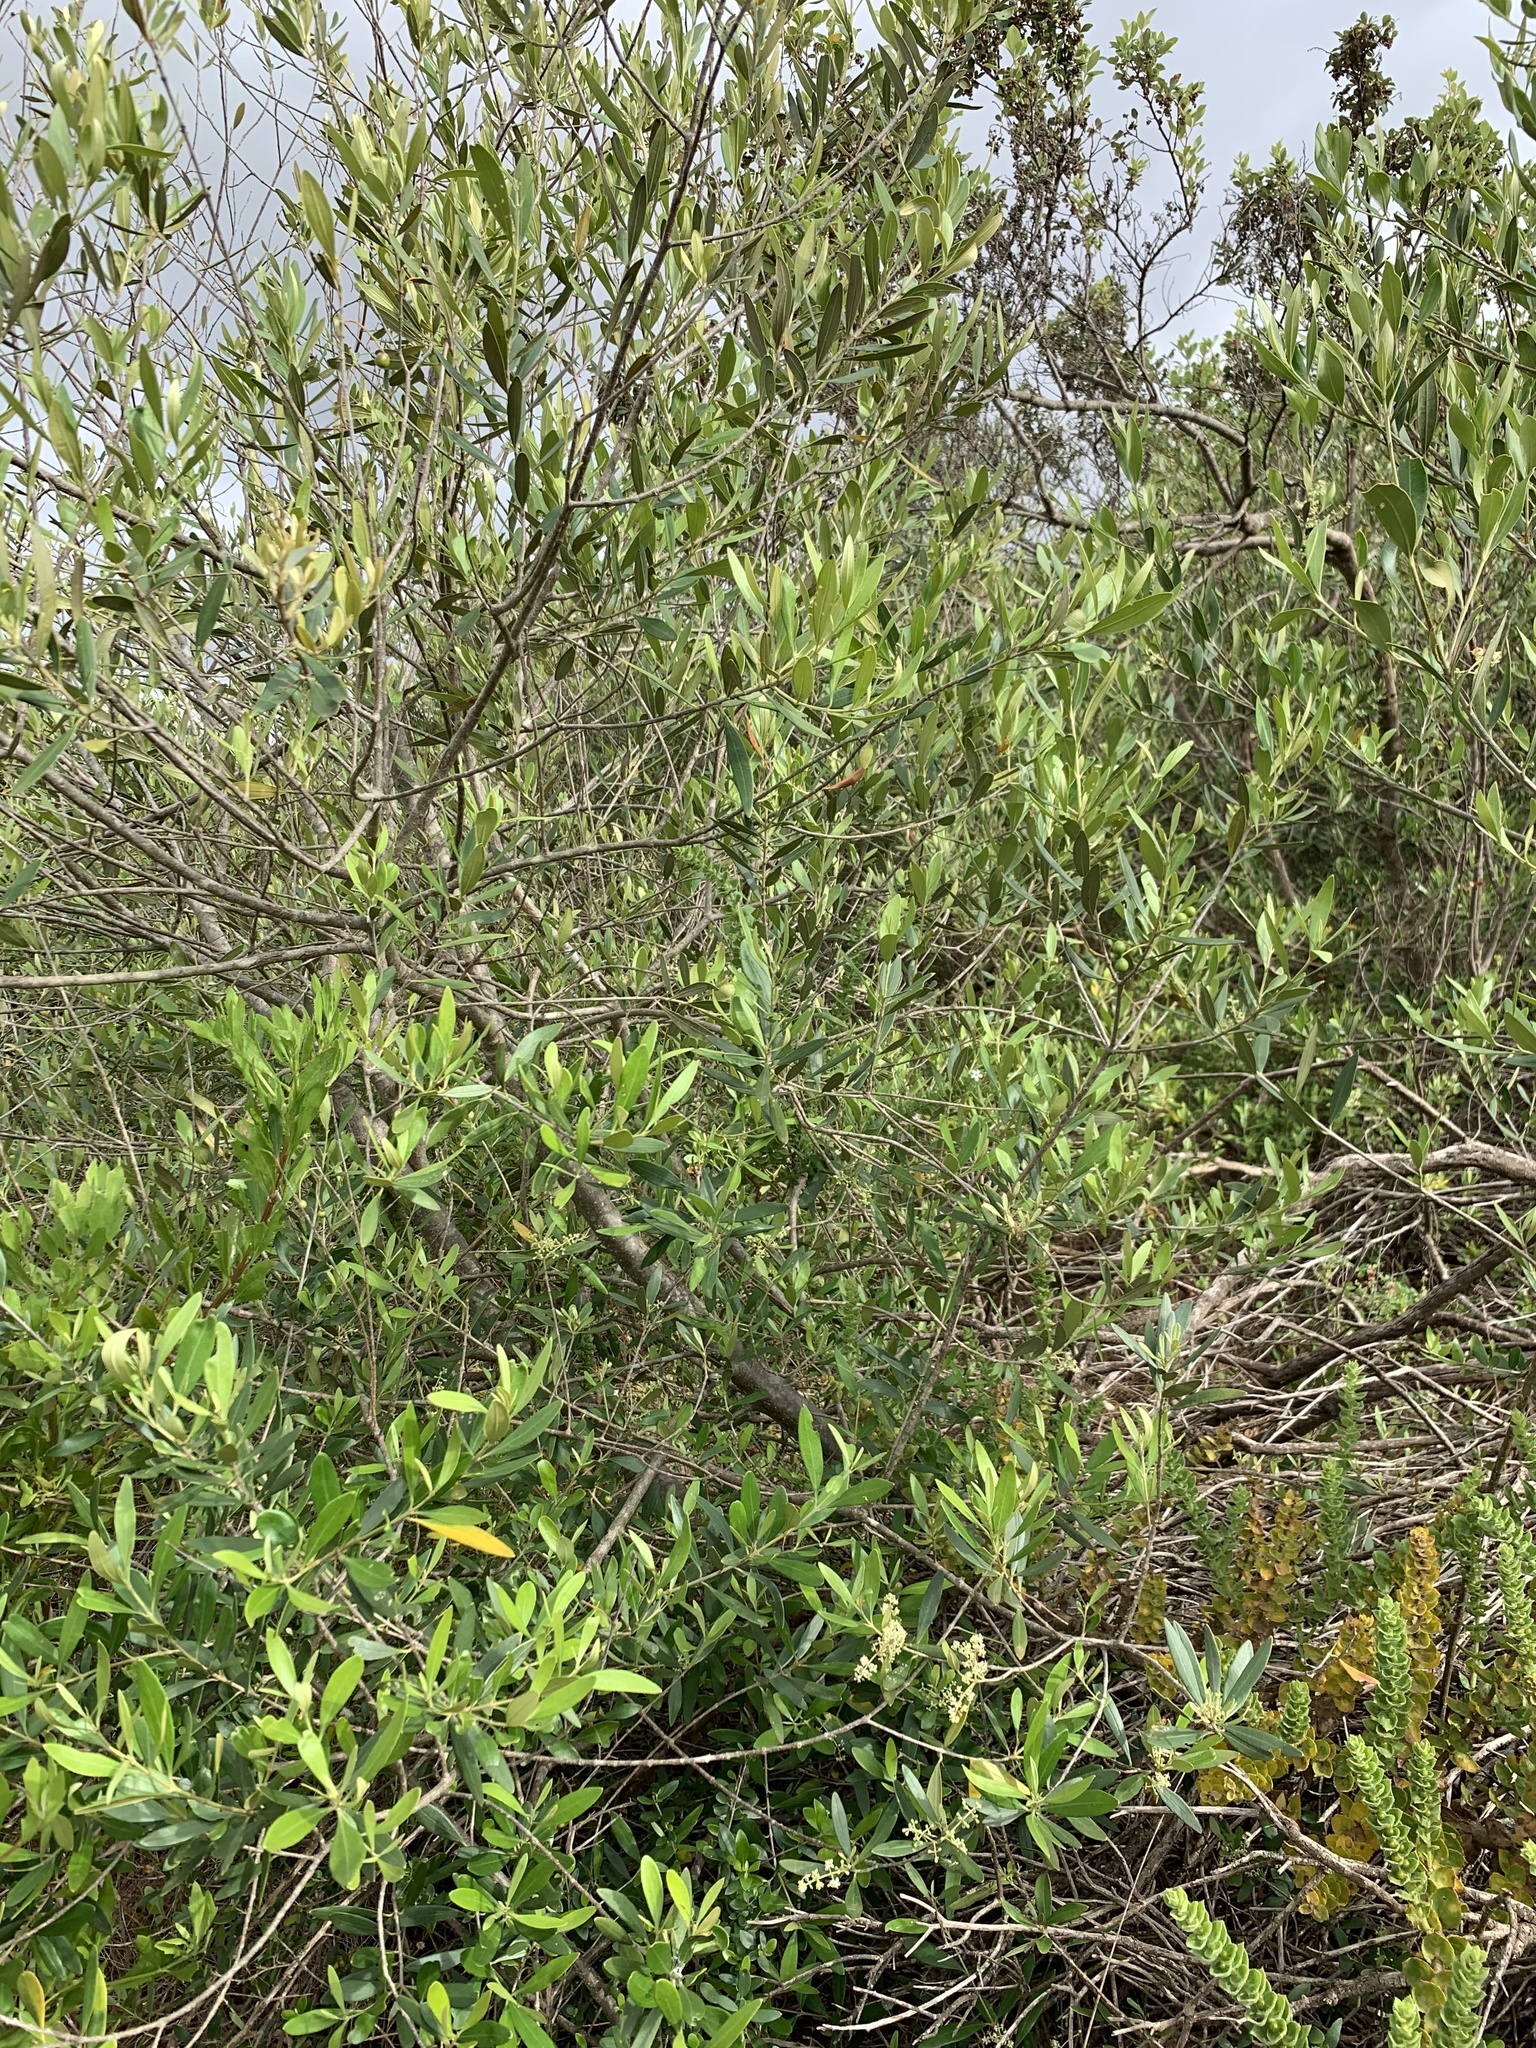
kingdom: Plantae
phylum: Tracheophyta
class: Magnoliopsida
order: Lamiales
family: Oleaceae
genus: Olea
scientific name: Olea europaea
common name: Olive
